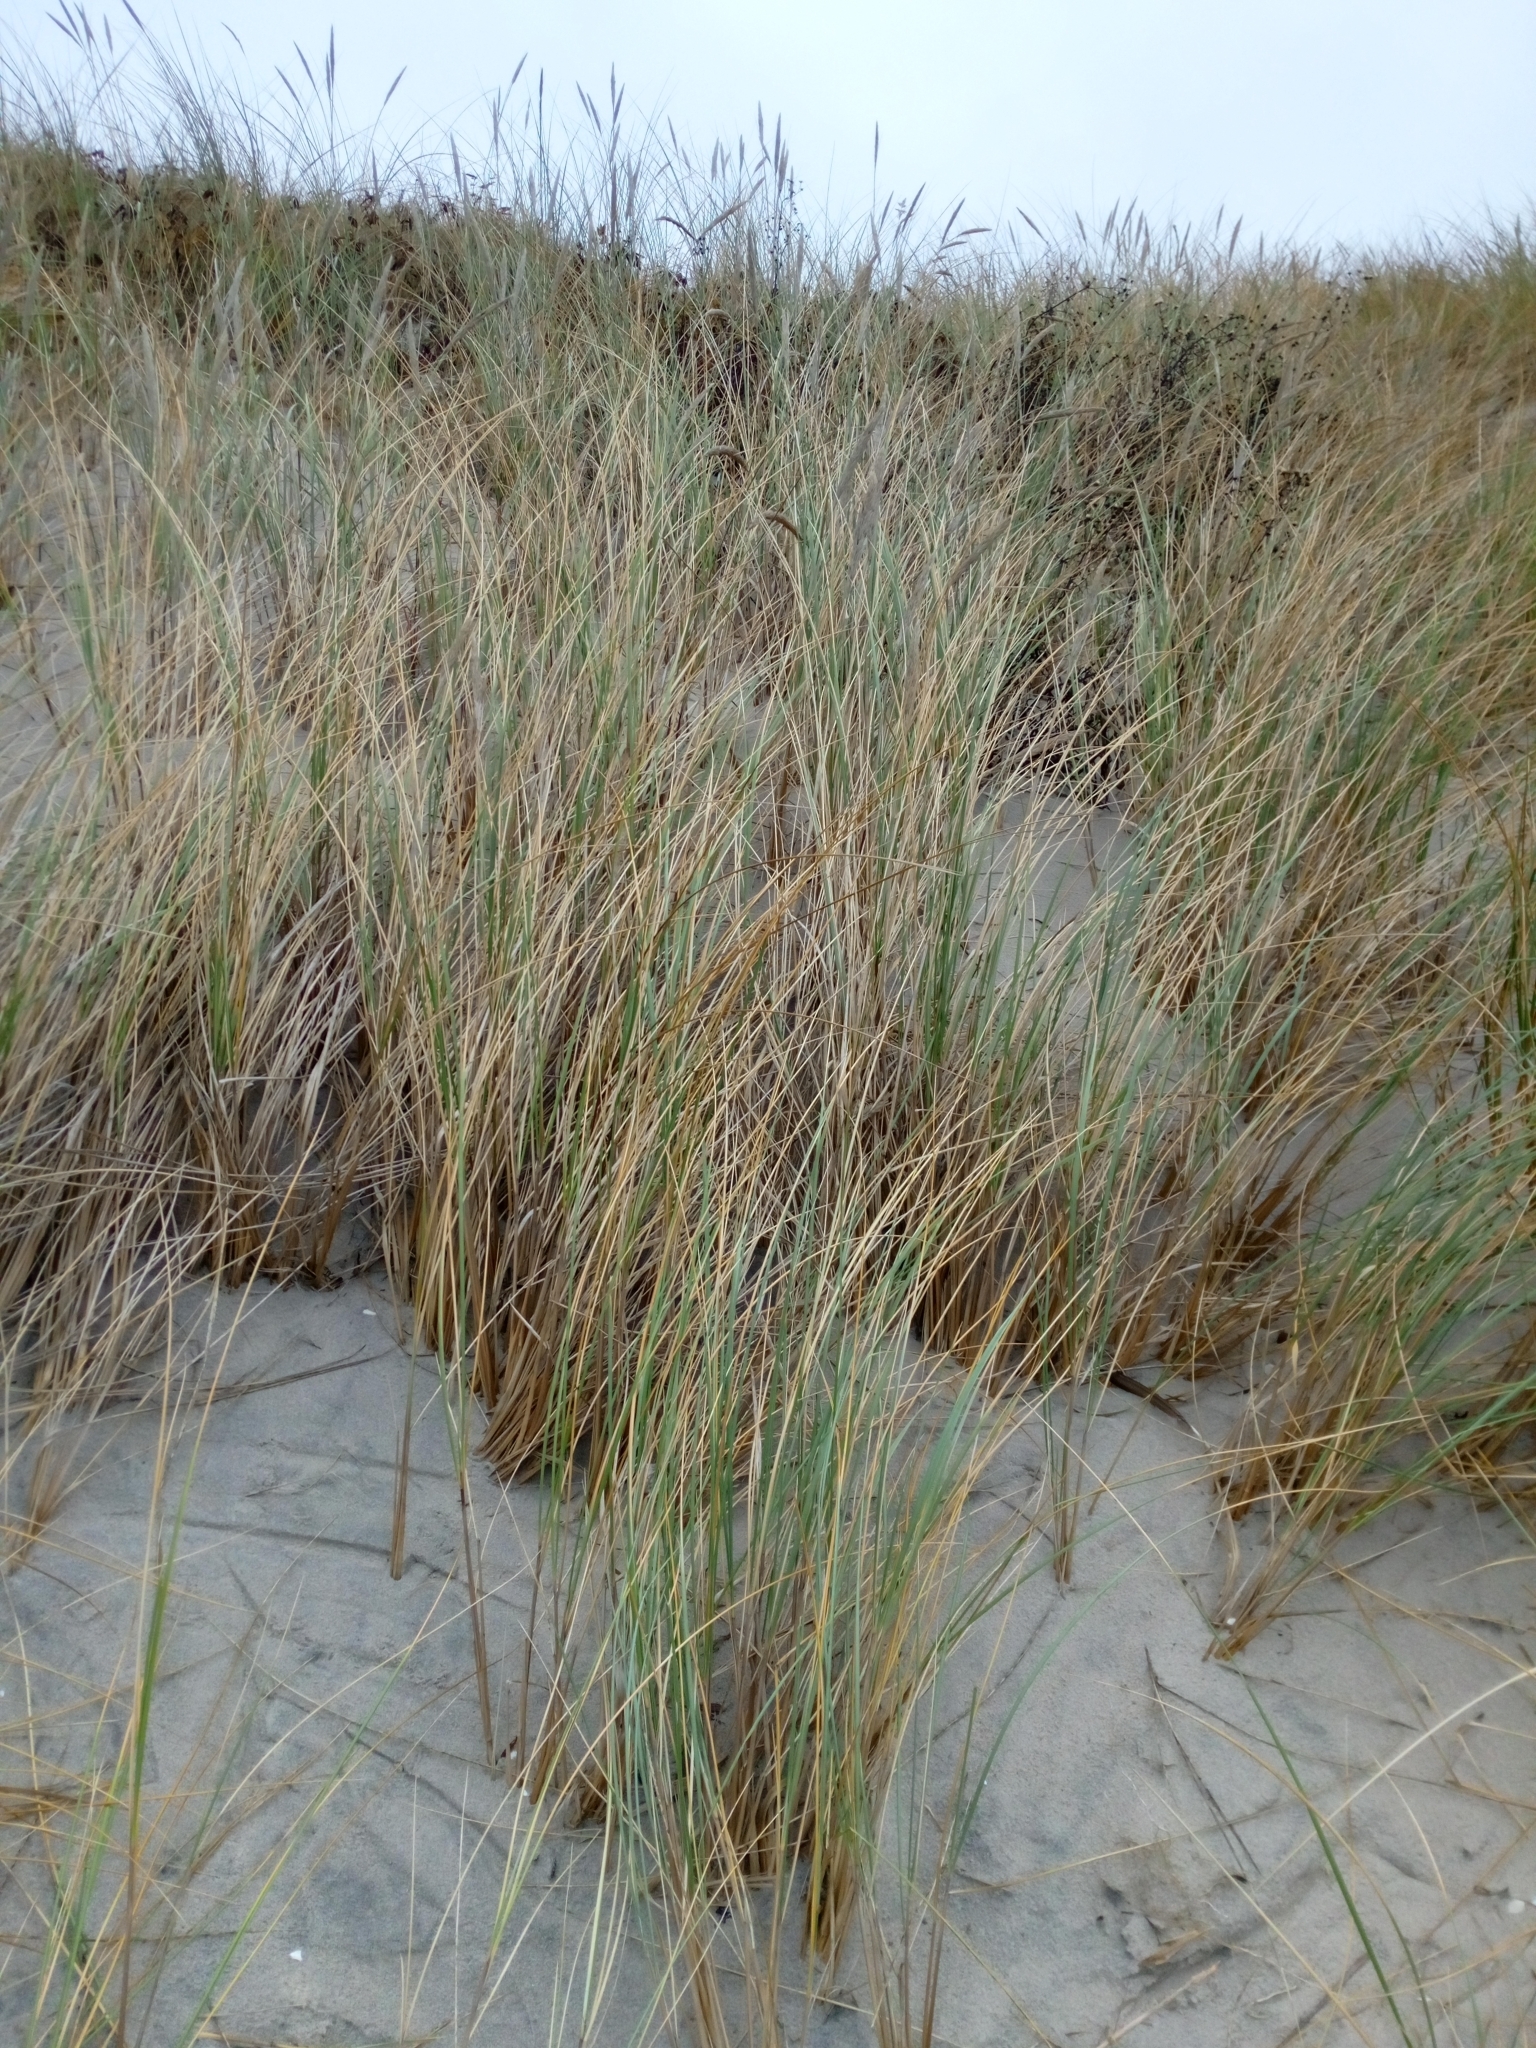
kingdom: Plantae
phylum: Tracheophyta
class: Liliopsida
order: Poales
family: Poaceae
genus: Calamagrostis
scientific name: Calamagrostis arenaria
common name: European beachgrass
